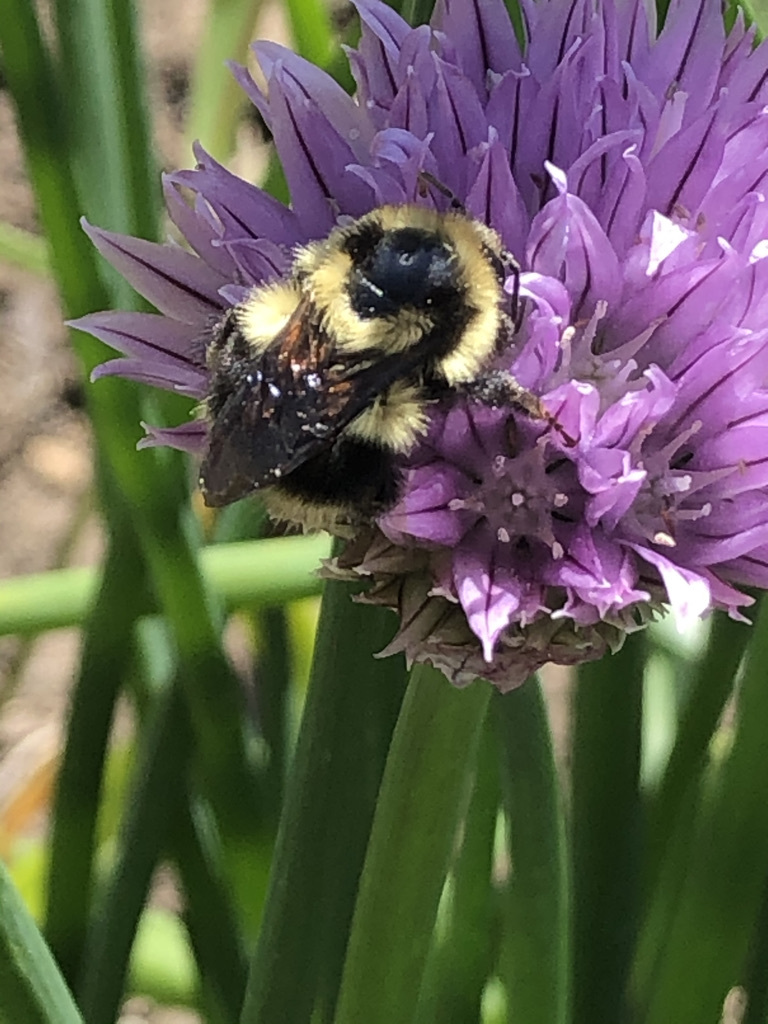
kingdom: Animalia
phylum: Arthropoda
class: Insecta
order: Hymenoptera
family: Apidae
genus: Bombus
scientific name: Bombus melanopygus
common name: Black tail bumble bee
